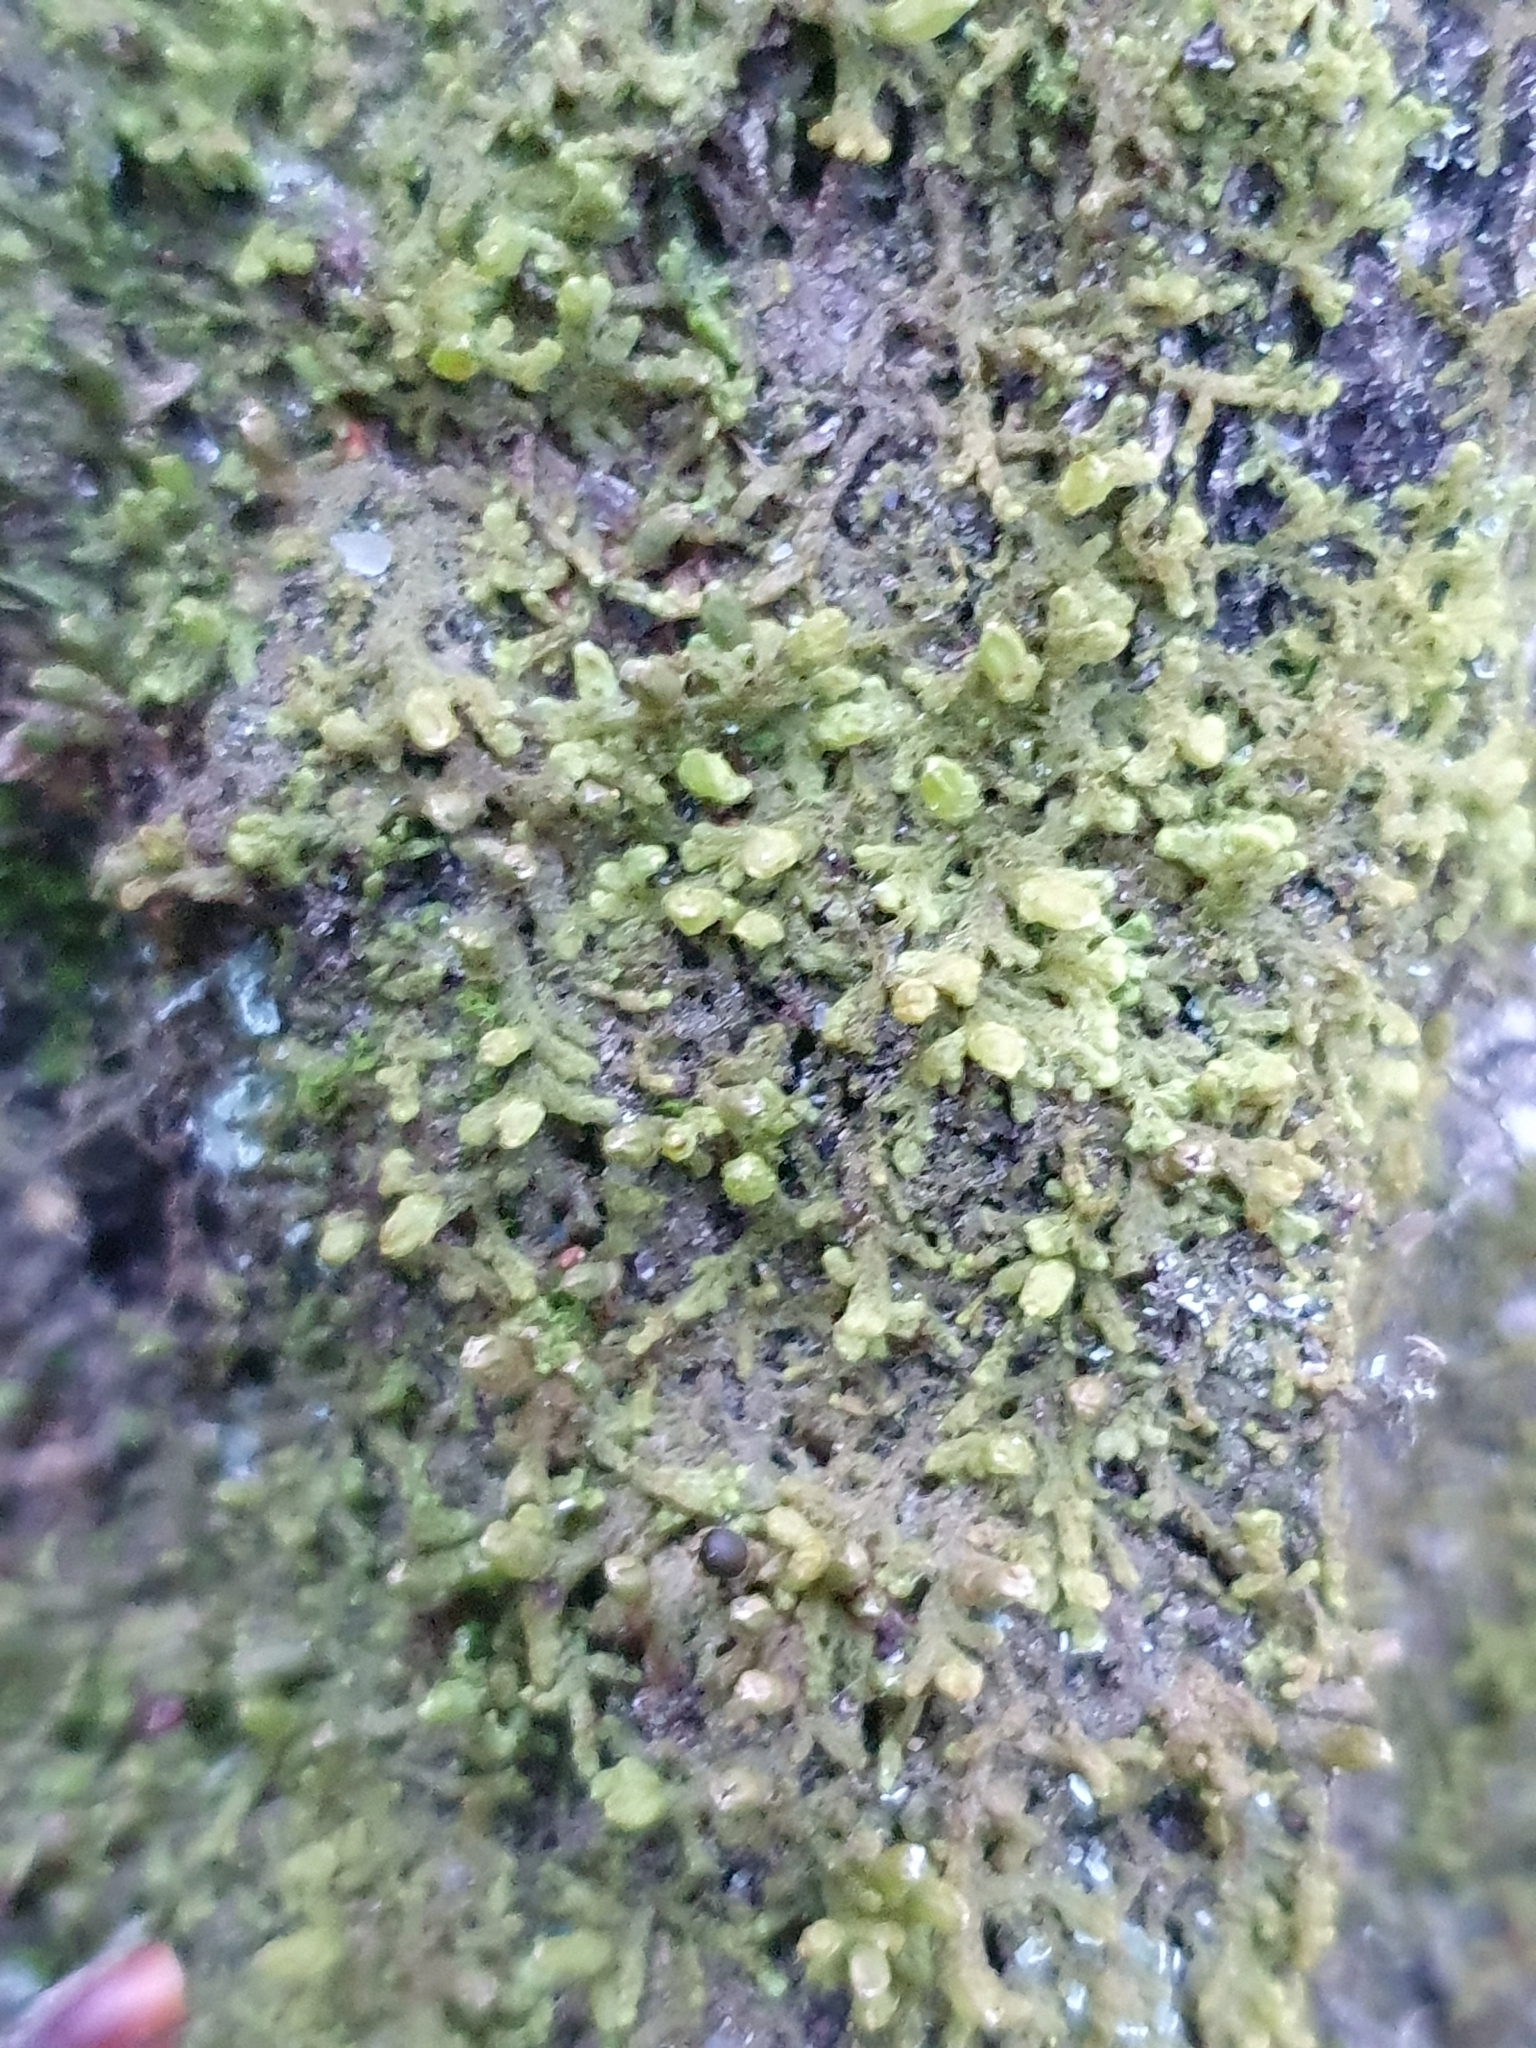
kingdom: Plantae
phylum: Marchantiophyta
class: Jungermanniopsida
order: Ptilidiales
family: Ptilidiaceae
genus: Ptilidium
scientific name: Ptilidium pulcherrimum
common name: Tree fringewort
